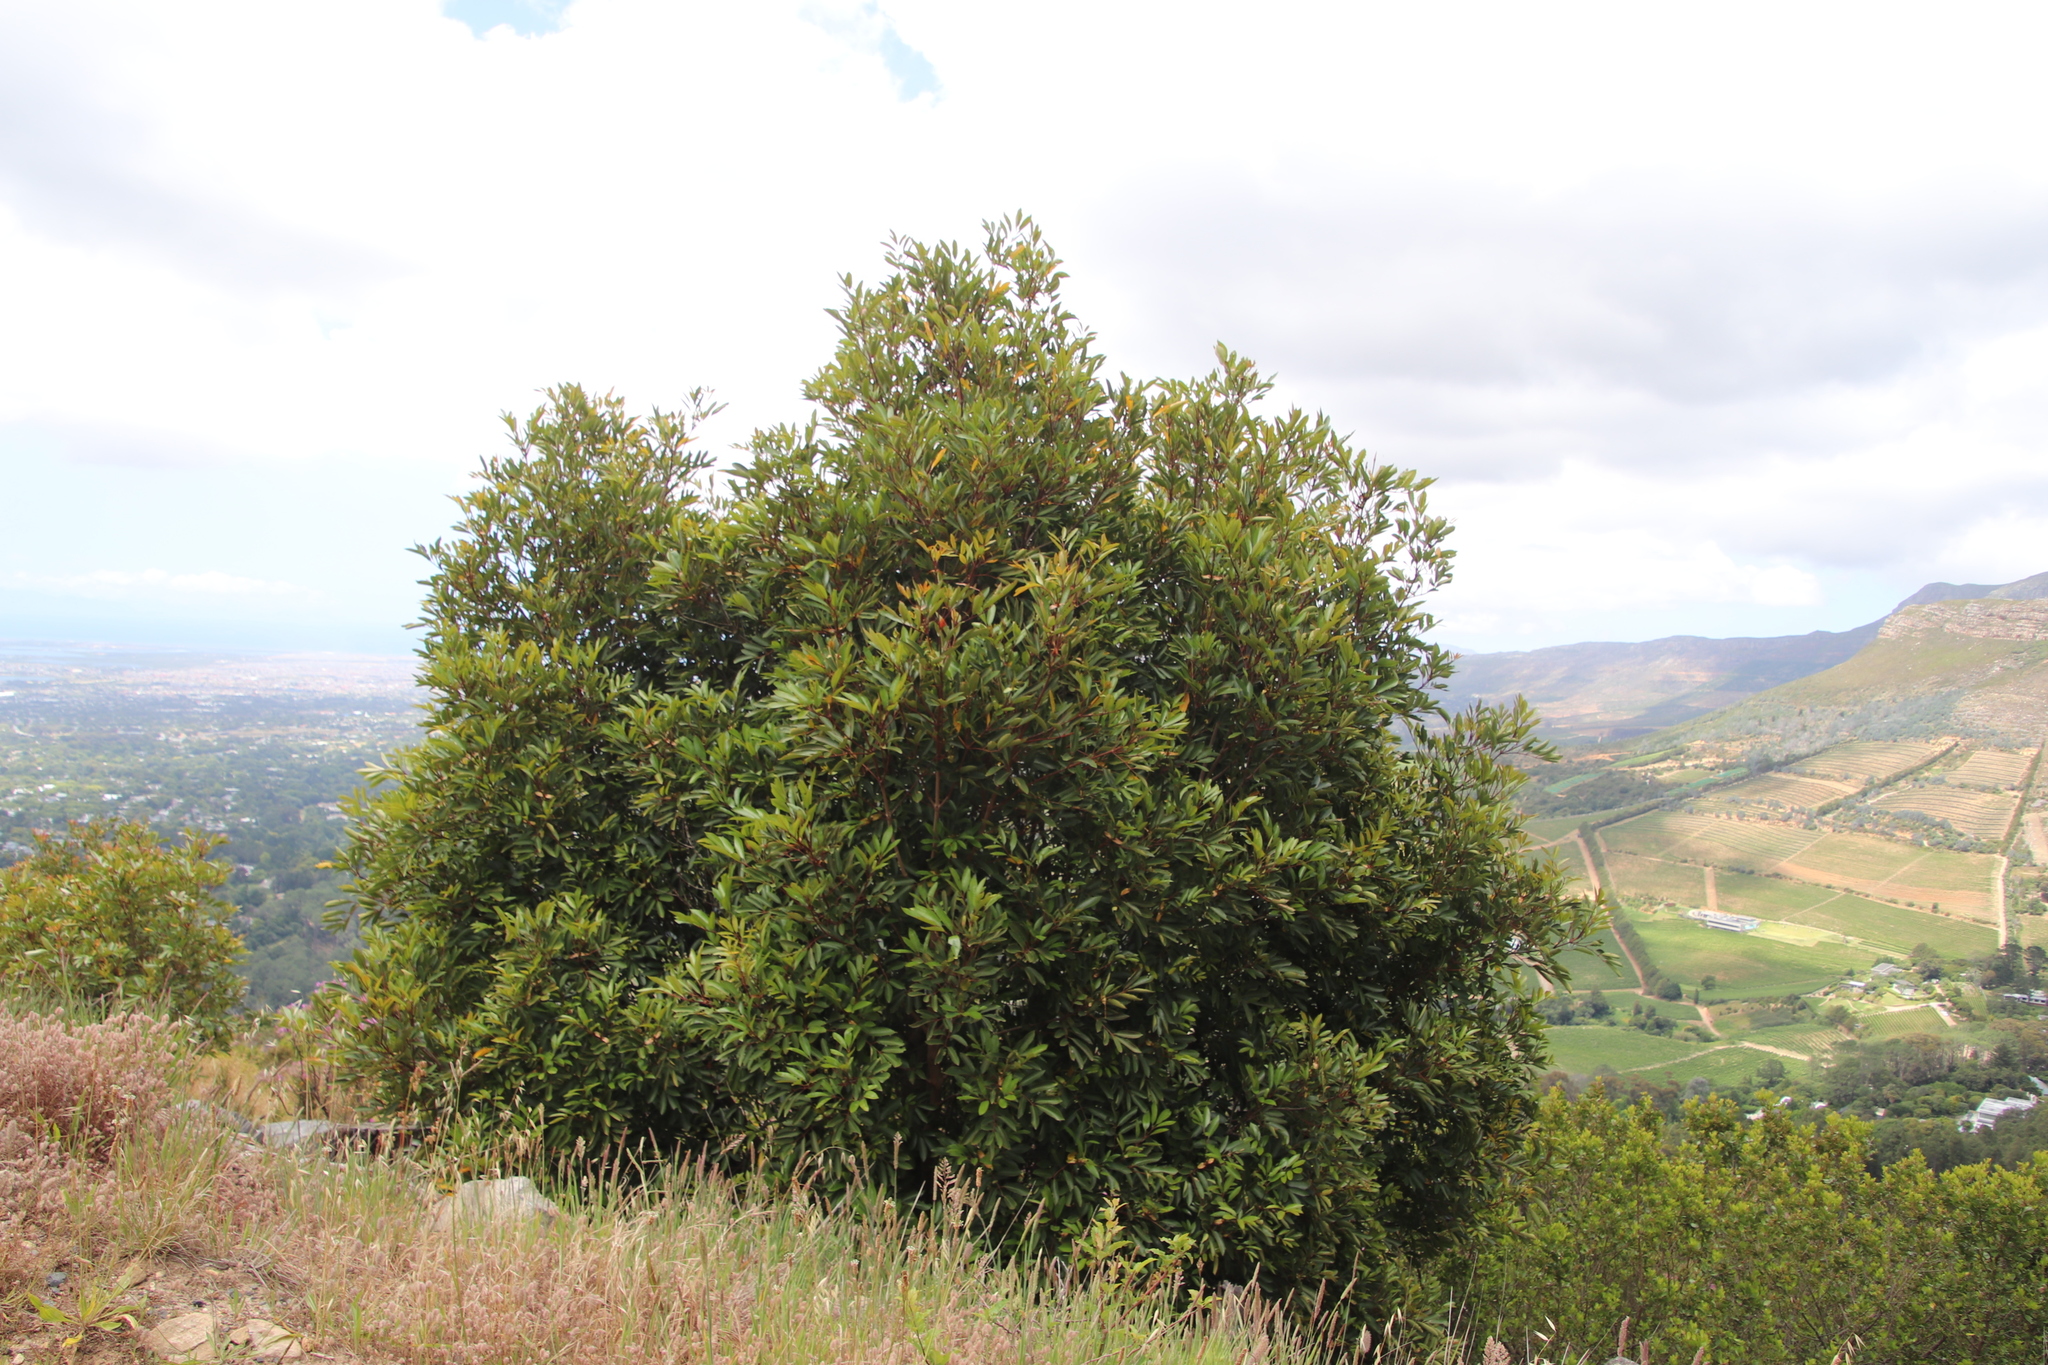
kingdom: Plantae
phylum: Tracheophyta
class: Magnoliopsida
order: Oxalidales
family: Cunoniaceae
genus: Cunonia
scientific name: Cunonia capensis
